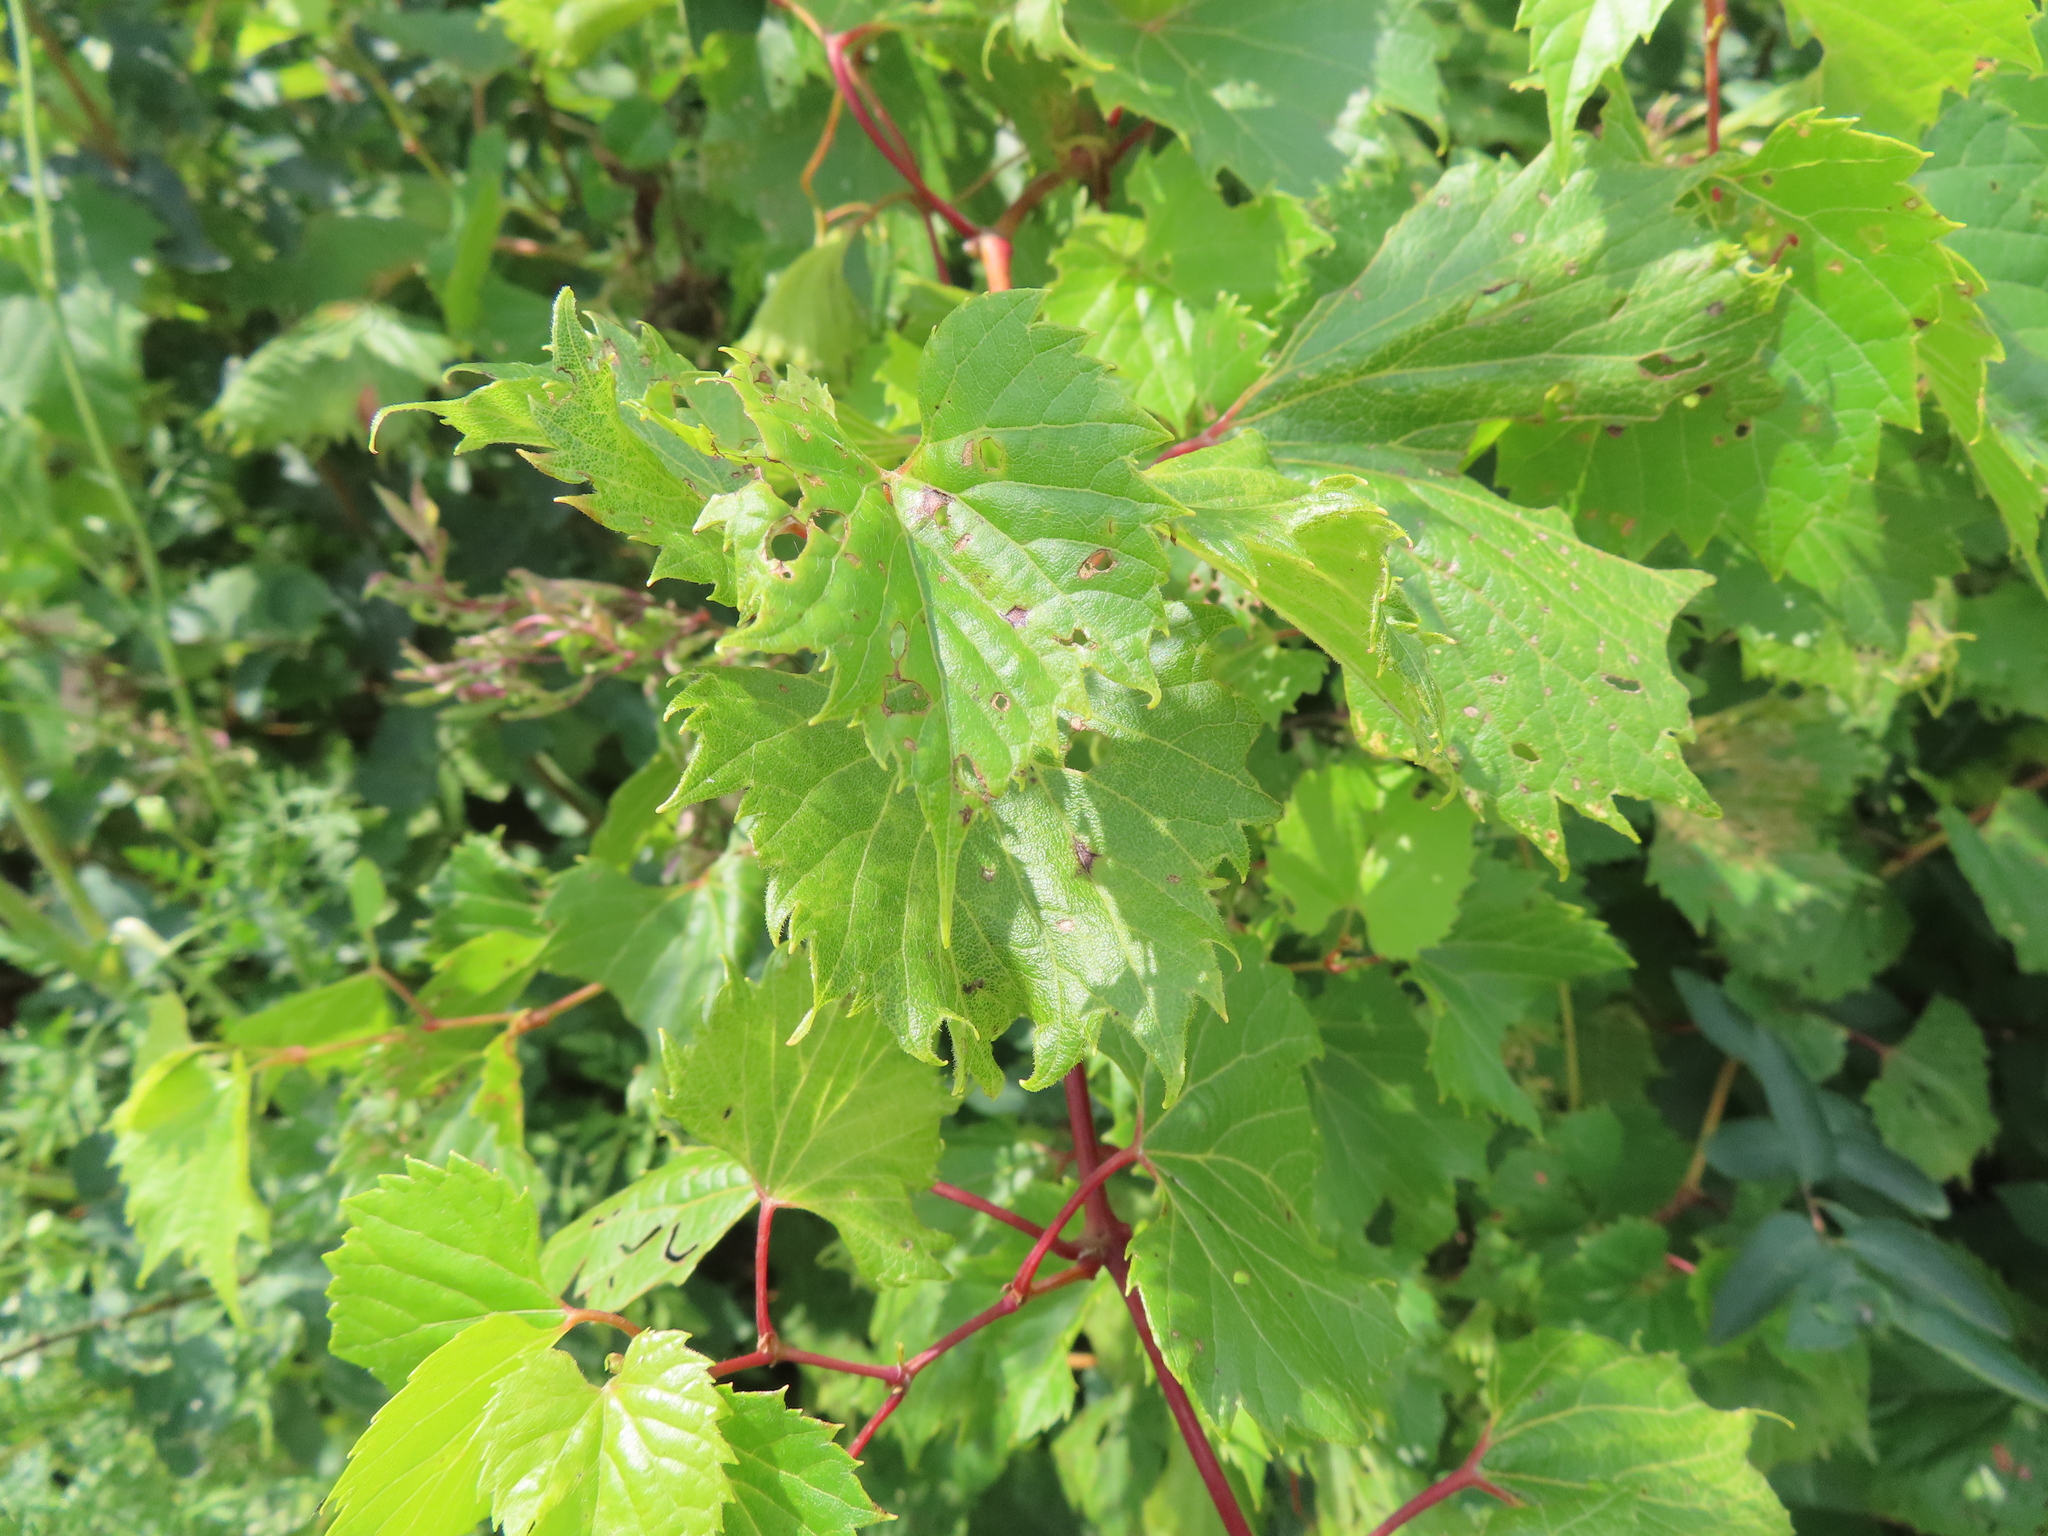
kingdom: Plantae
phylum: Tracheophyta
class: Magnoliopsida
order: Vitales
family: Vitaceae
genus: Vitis
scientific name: Vitis riparia
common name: Frost grape
